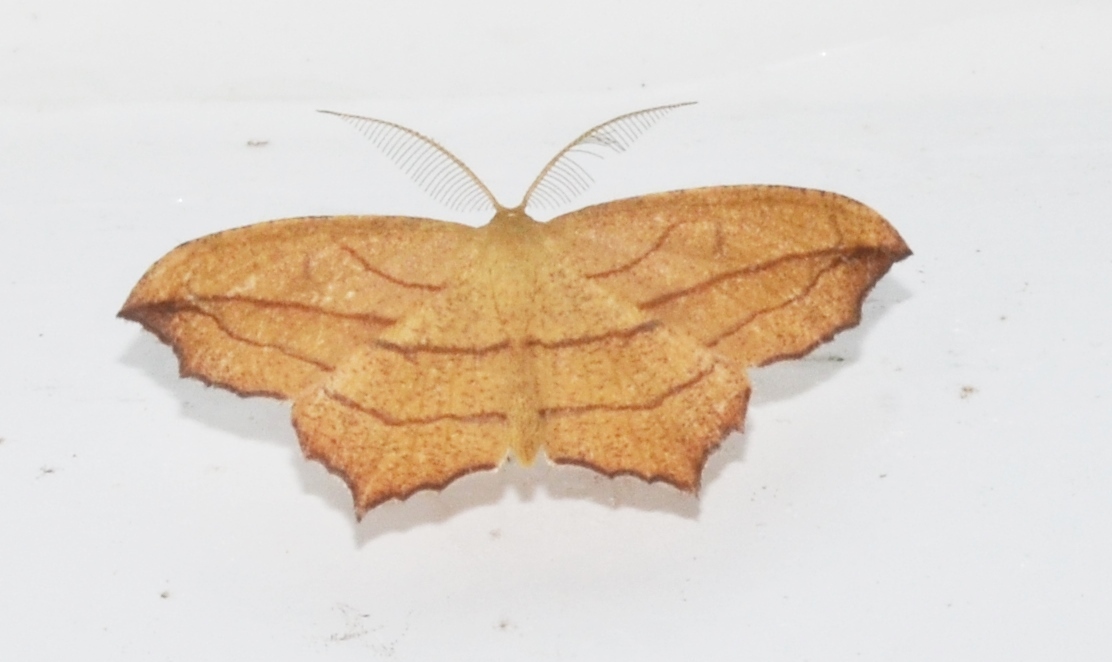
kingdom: Animalia
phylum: Arthropoda
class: Insecta
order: Lepidoptera
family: Geometridae
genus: Timandra
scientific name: Timandra amaturaria
